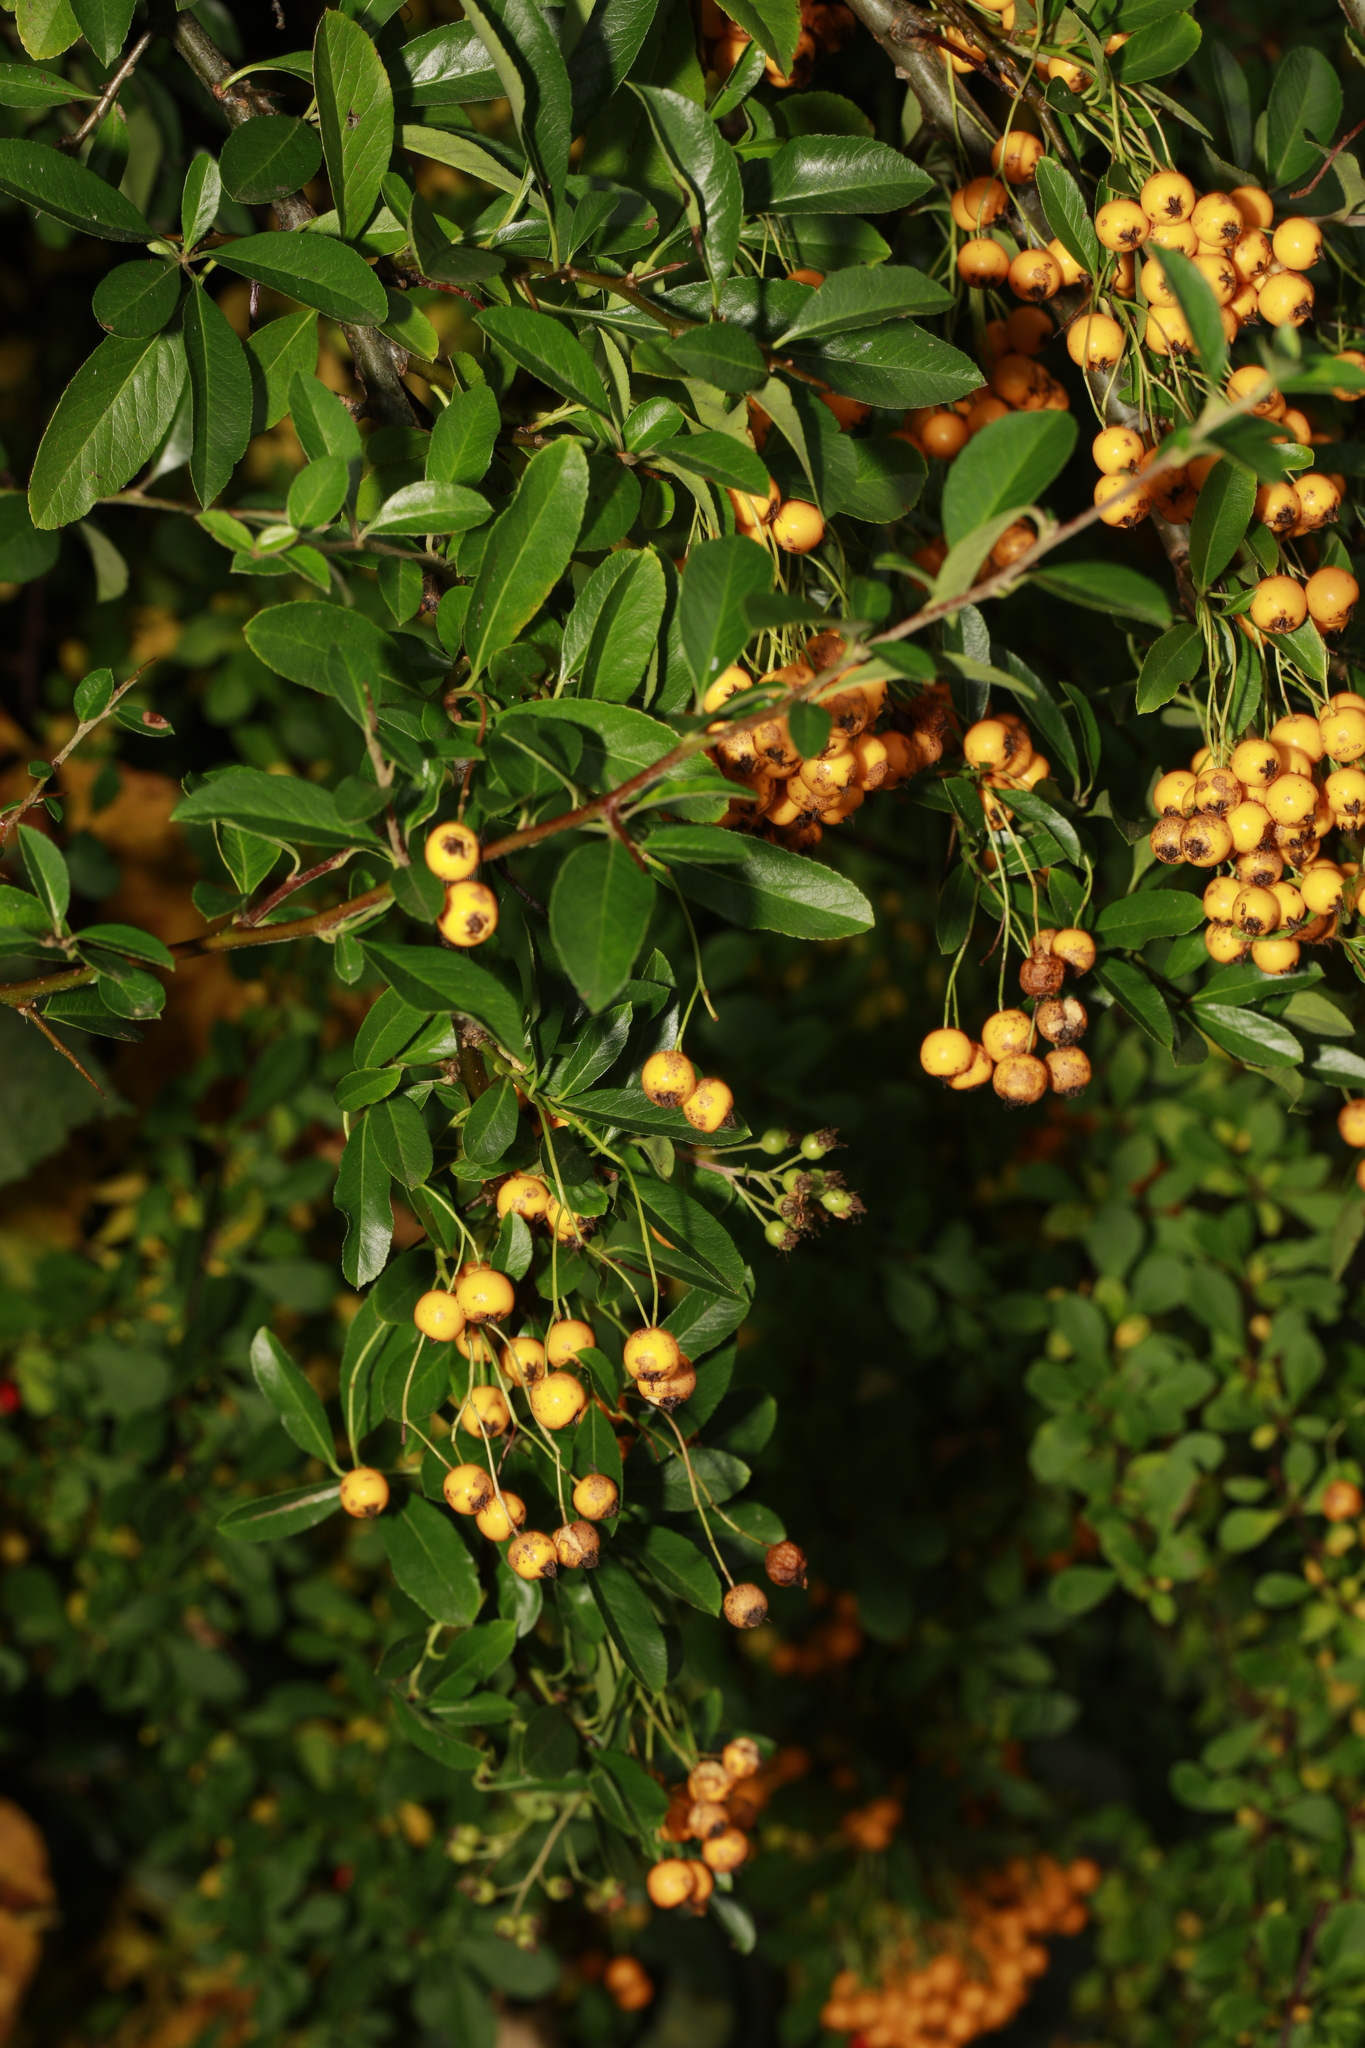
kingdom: Plantae
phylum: Tracheophyta
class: Magnoliopsida
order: Rosales
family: Rosaceae
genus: Pyracantha
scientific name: Pyracantha coccinea
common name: Firethorn
